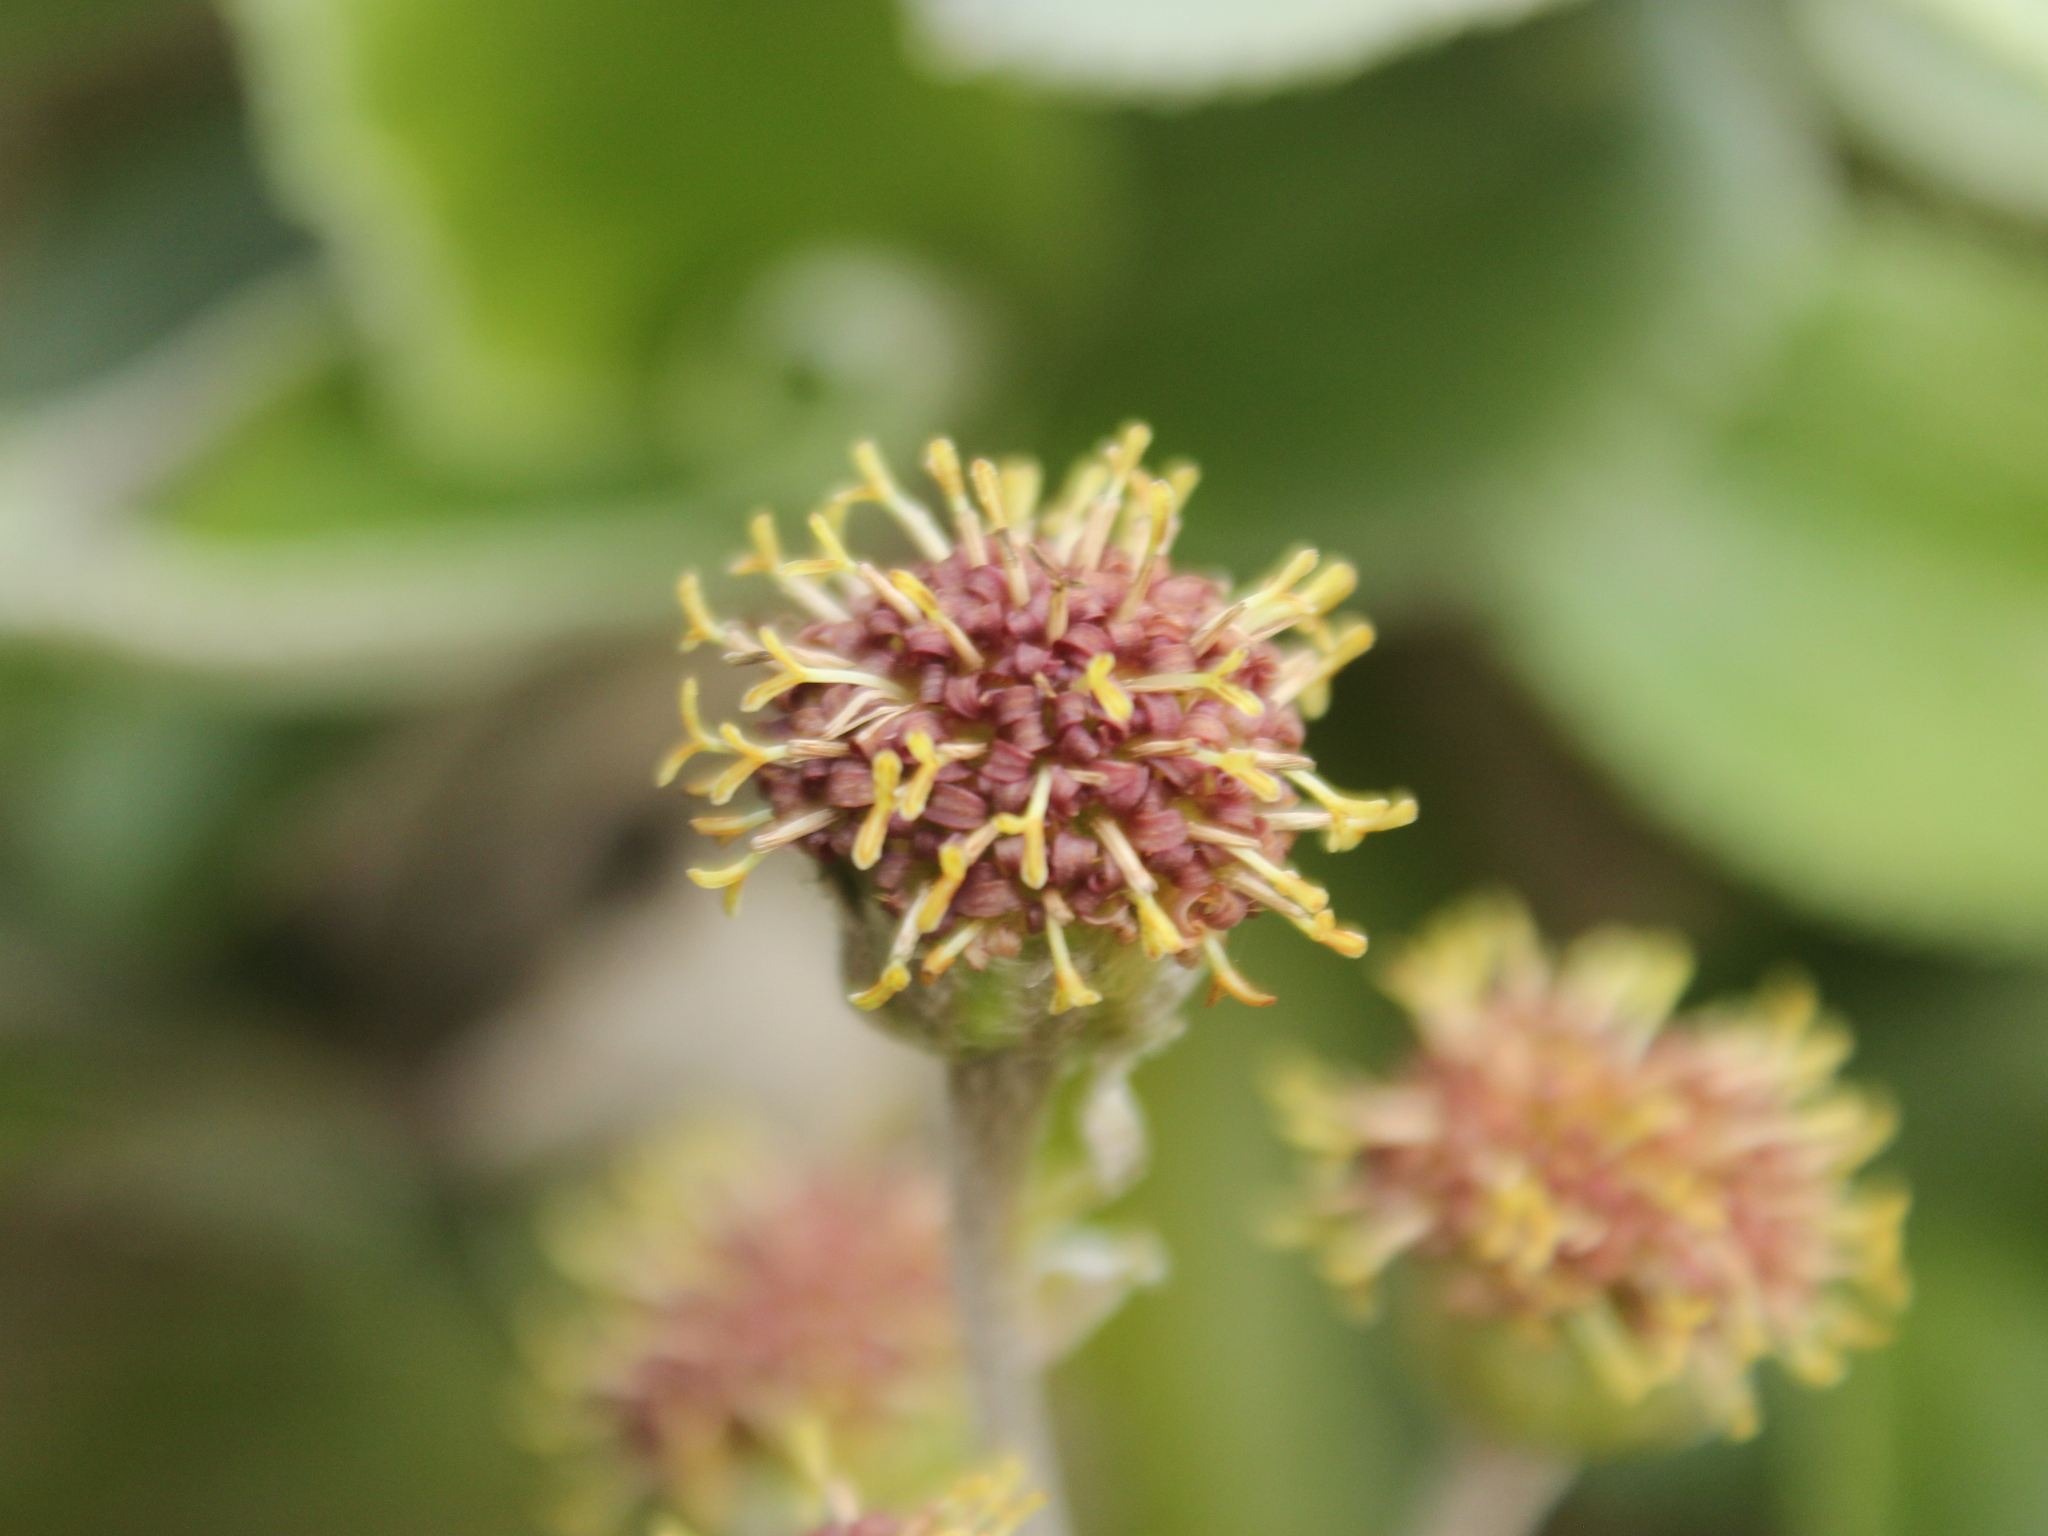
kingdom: Plantae
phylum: Tracheophyta
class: Magnoliopsida
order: Asterales
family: Asteraceae
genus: Macrolearia
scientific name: Macrolearia colensoi
